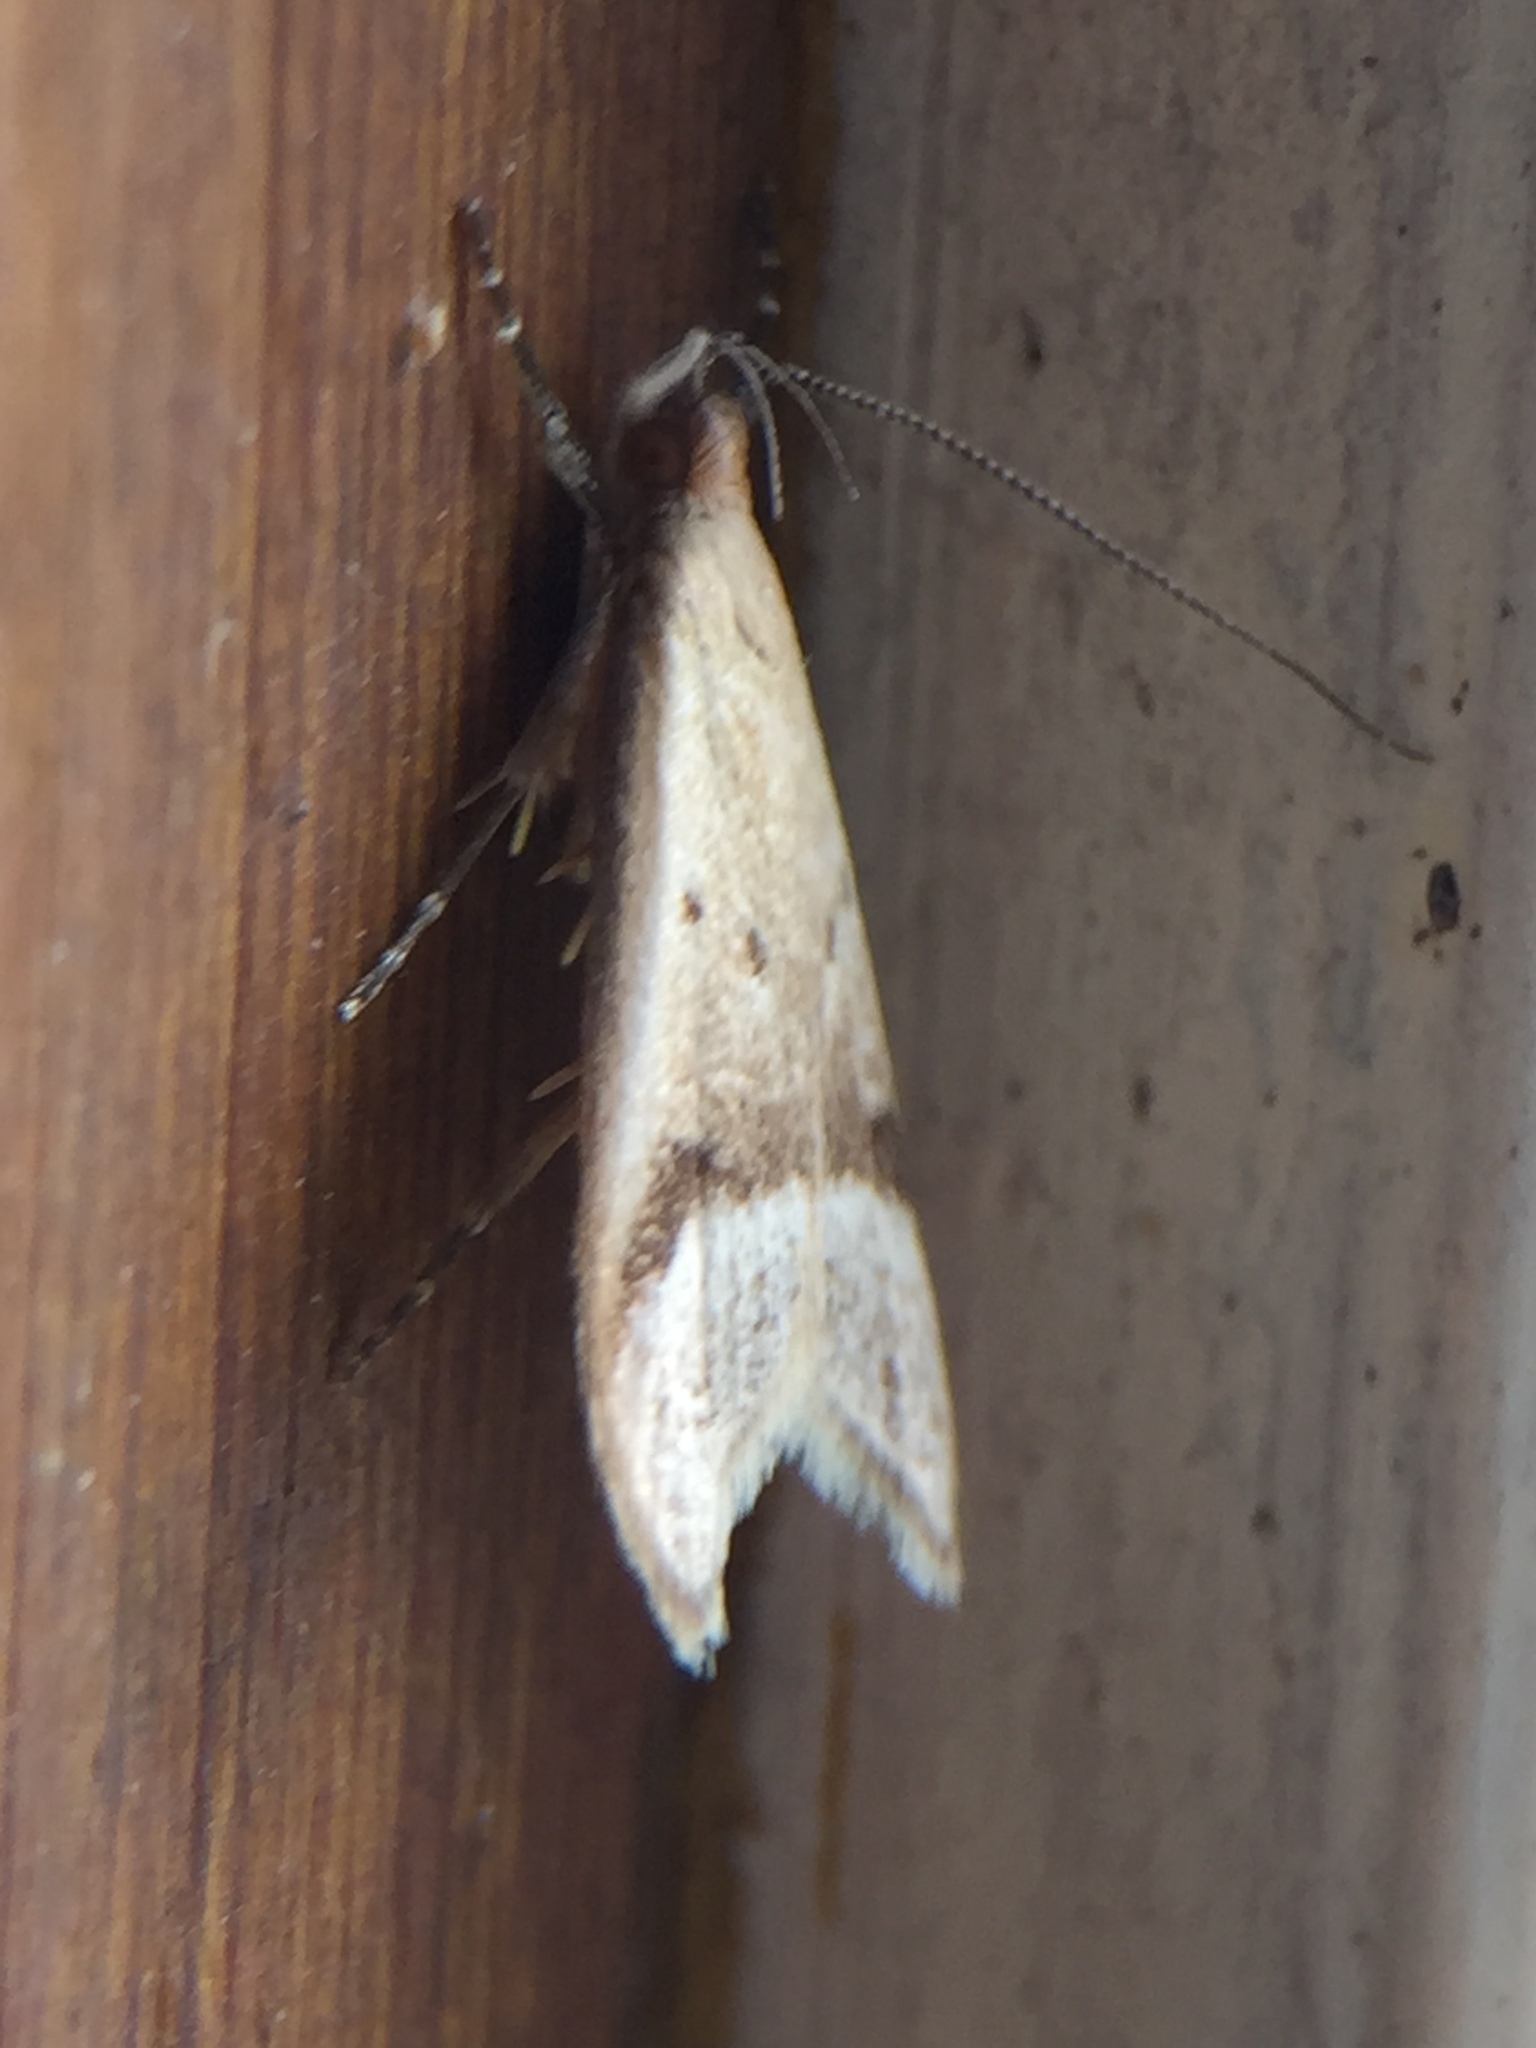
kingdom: Animalia
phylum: Arthropoda
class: Insecta
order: Lepidoptera
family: Oecophoridae
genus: Gymnobathra
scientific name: Gymnobathra hyetodes
